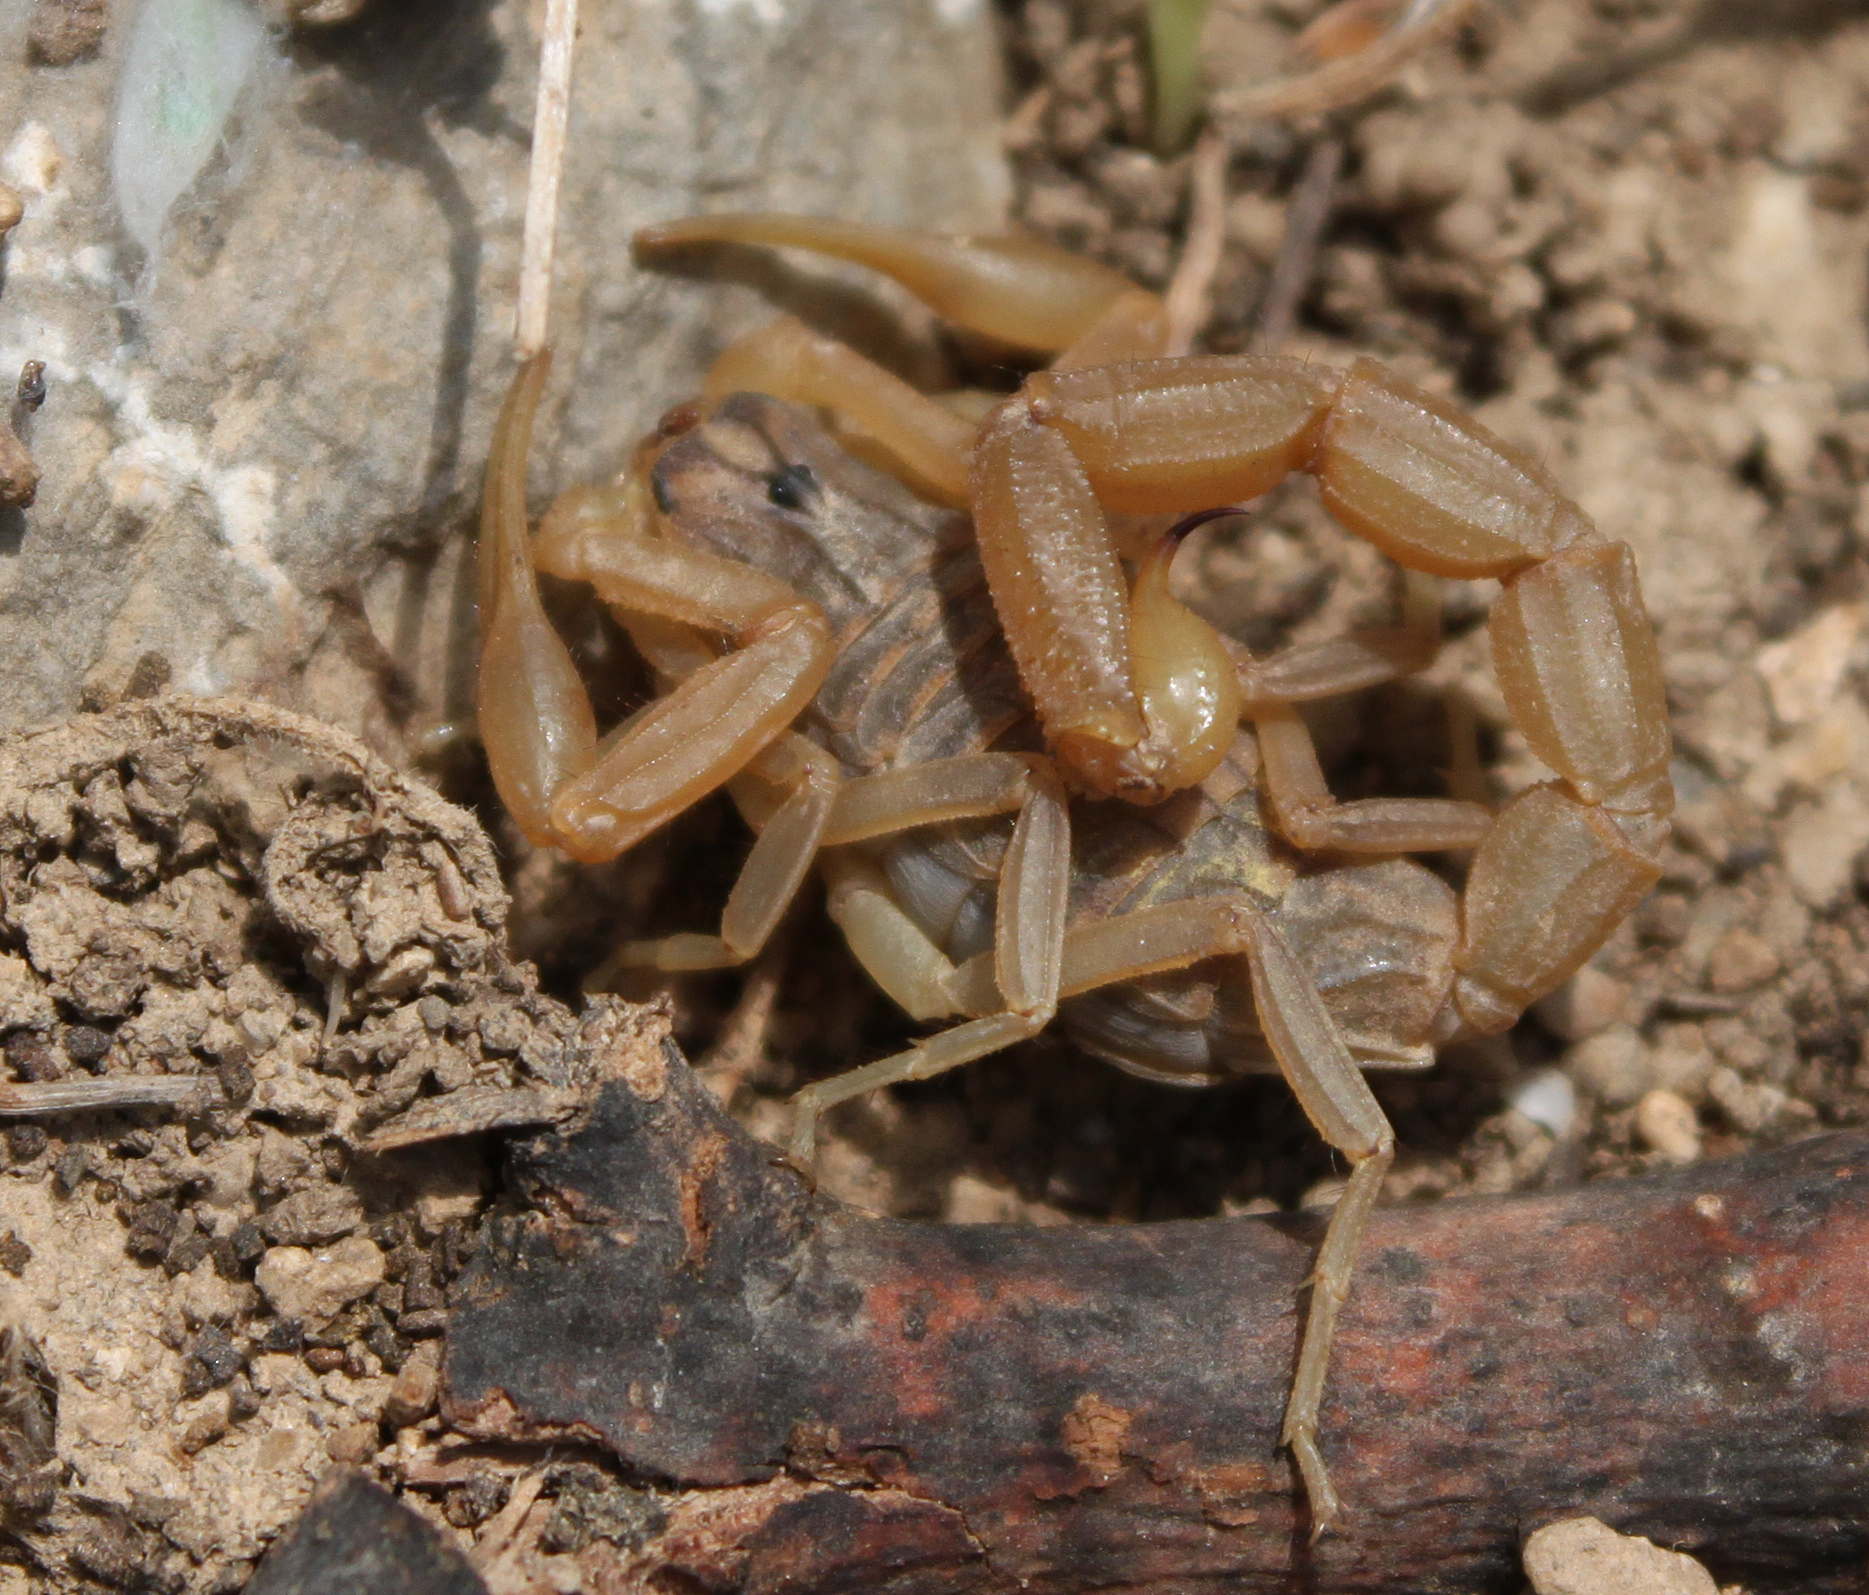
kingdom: Animalia
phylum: Arthropoda
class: Arachnida
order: Scorpiones
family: Buthidae
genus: Aegaeobuthus
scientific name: Aegaeobuthus gibbosus
